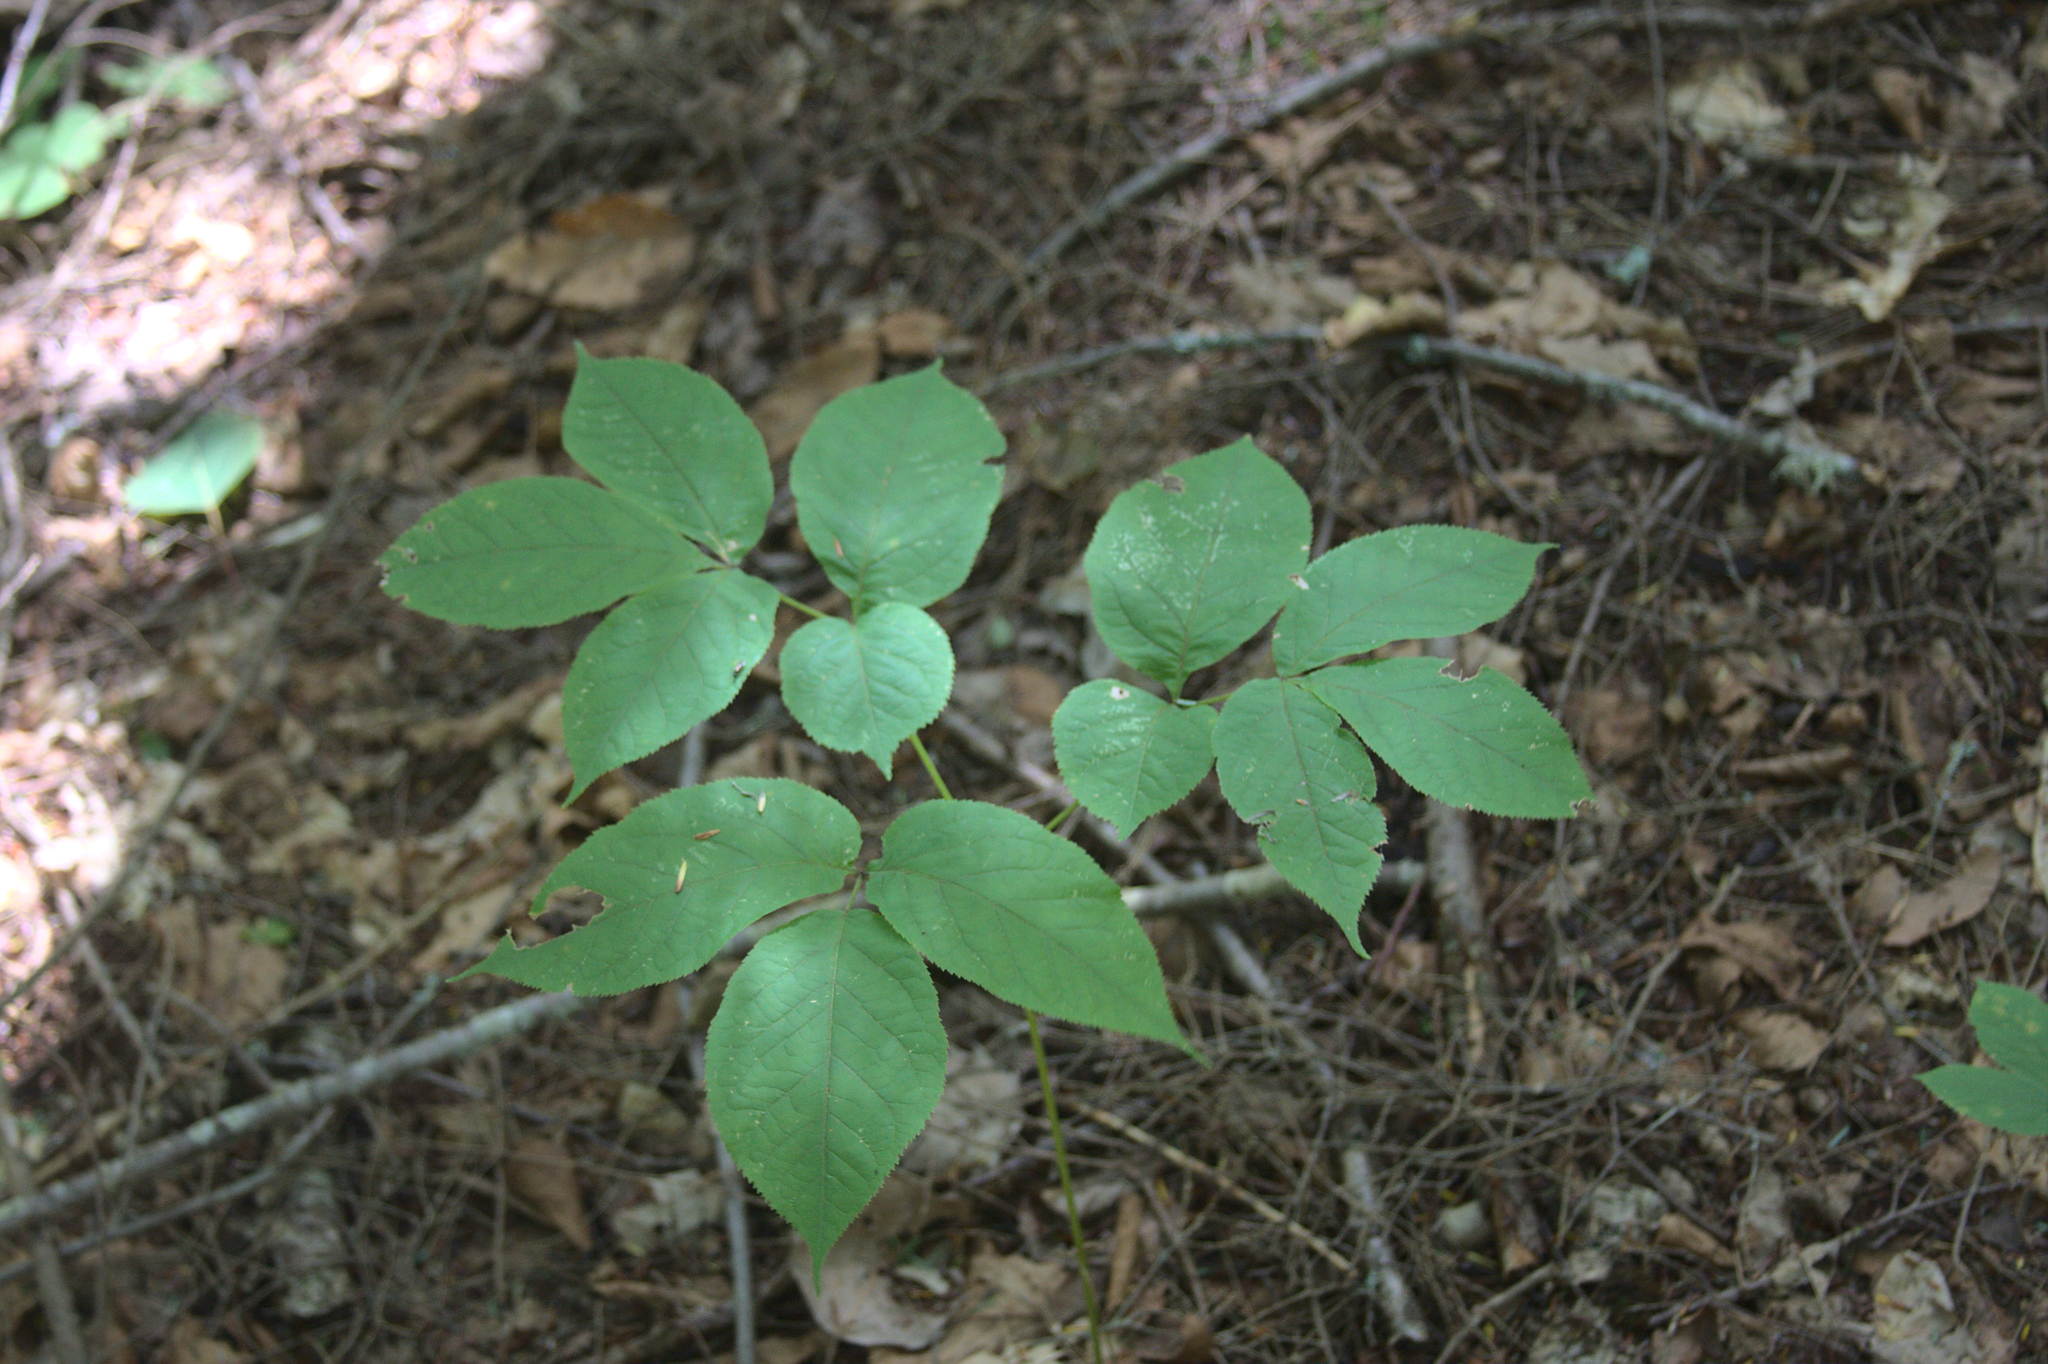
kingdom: Plantae
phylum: Tracheophyta
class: Magnoliopsida
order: Apiales
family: Araliaceae
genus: Aralia
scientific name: Aralia nudicaulis
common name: Wild sarsaparilla
